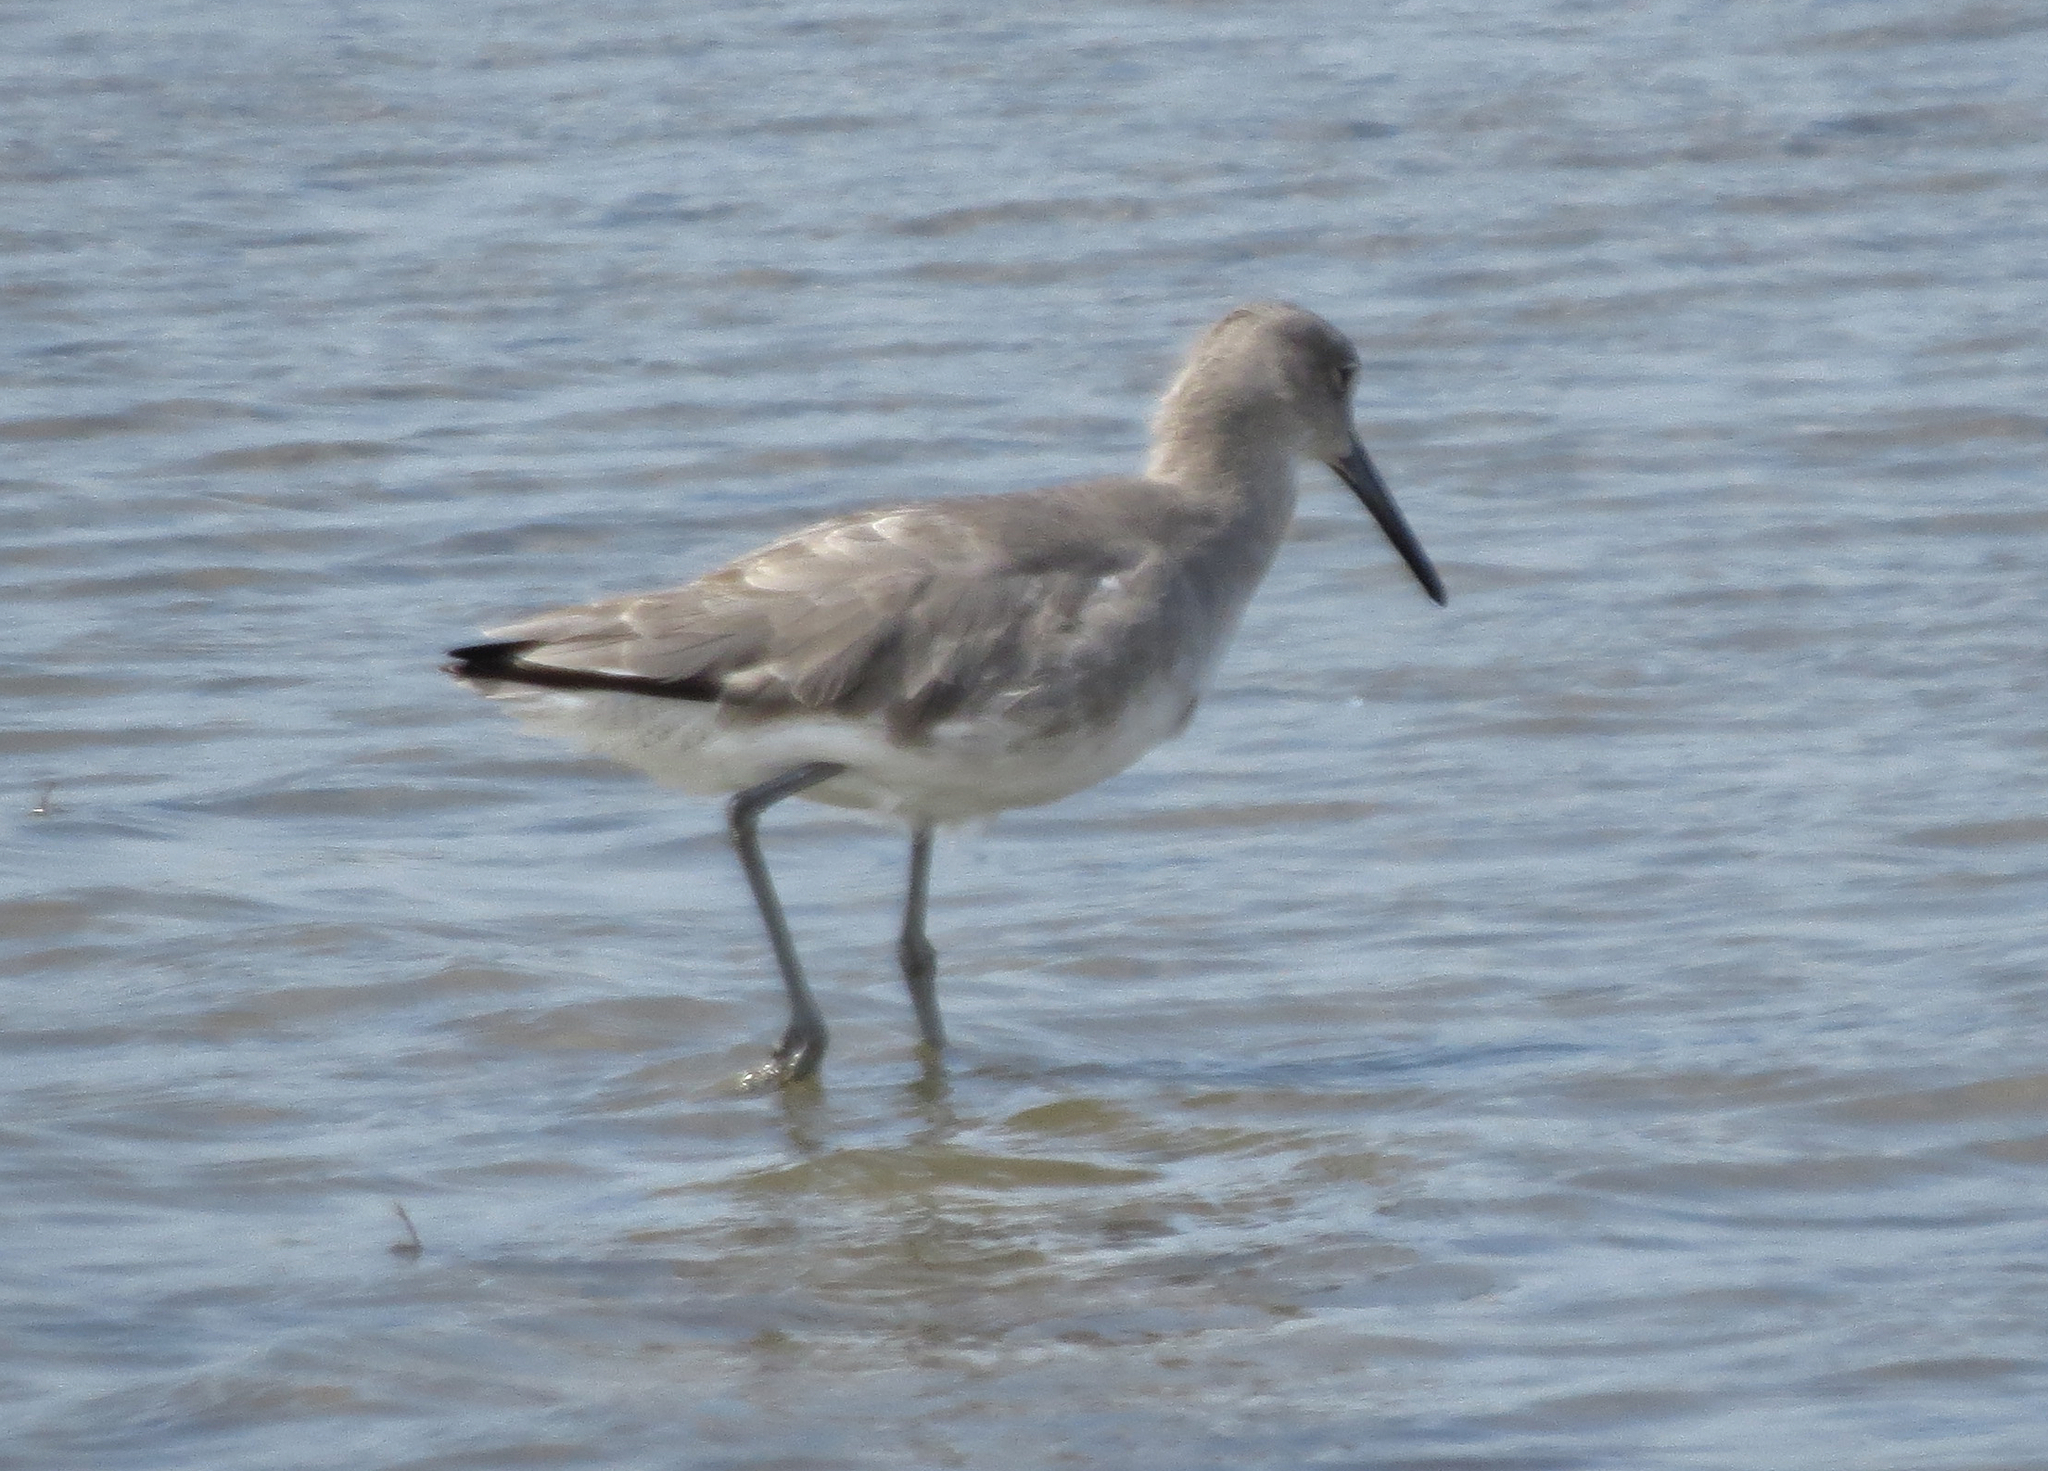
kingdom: Animalia
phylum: Chordata
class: Aves
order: Charadriiformes
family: Scolopacidae
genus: Tringa
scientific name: Tringa semipalmata
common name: Willet
